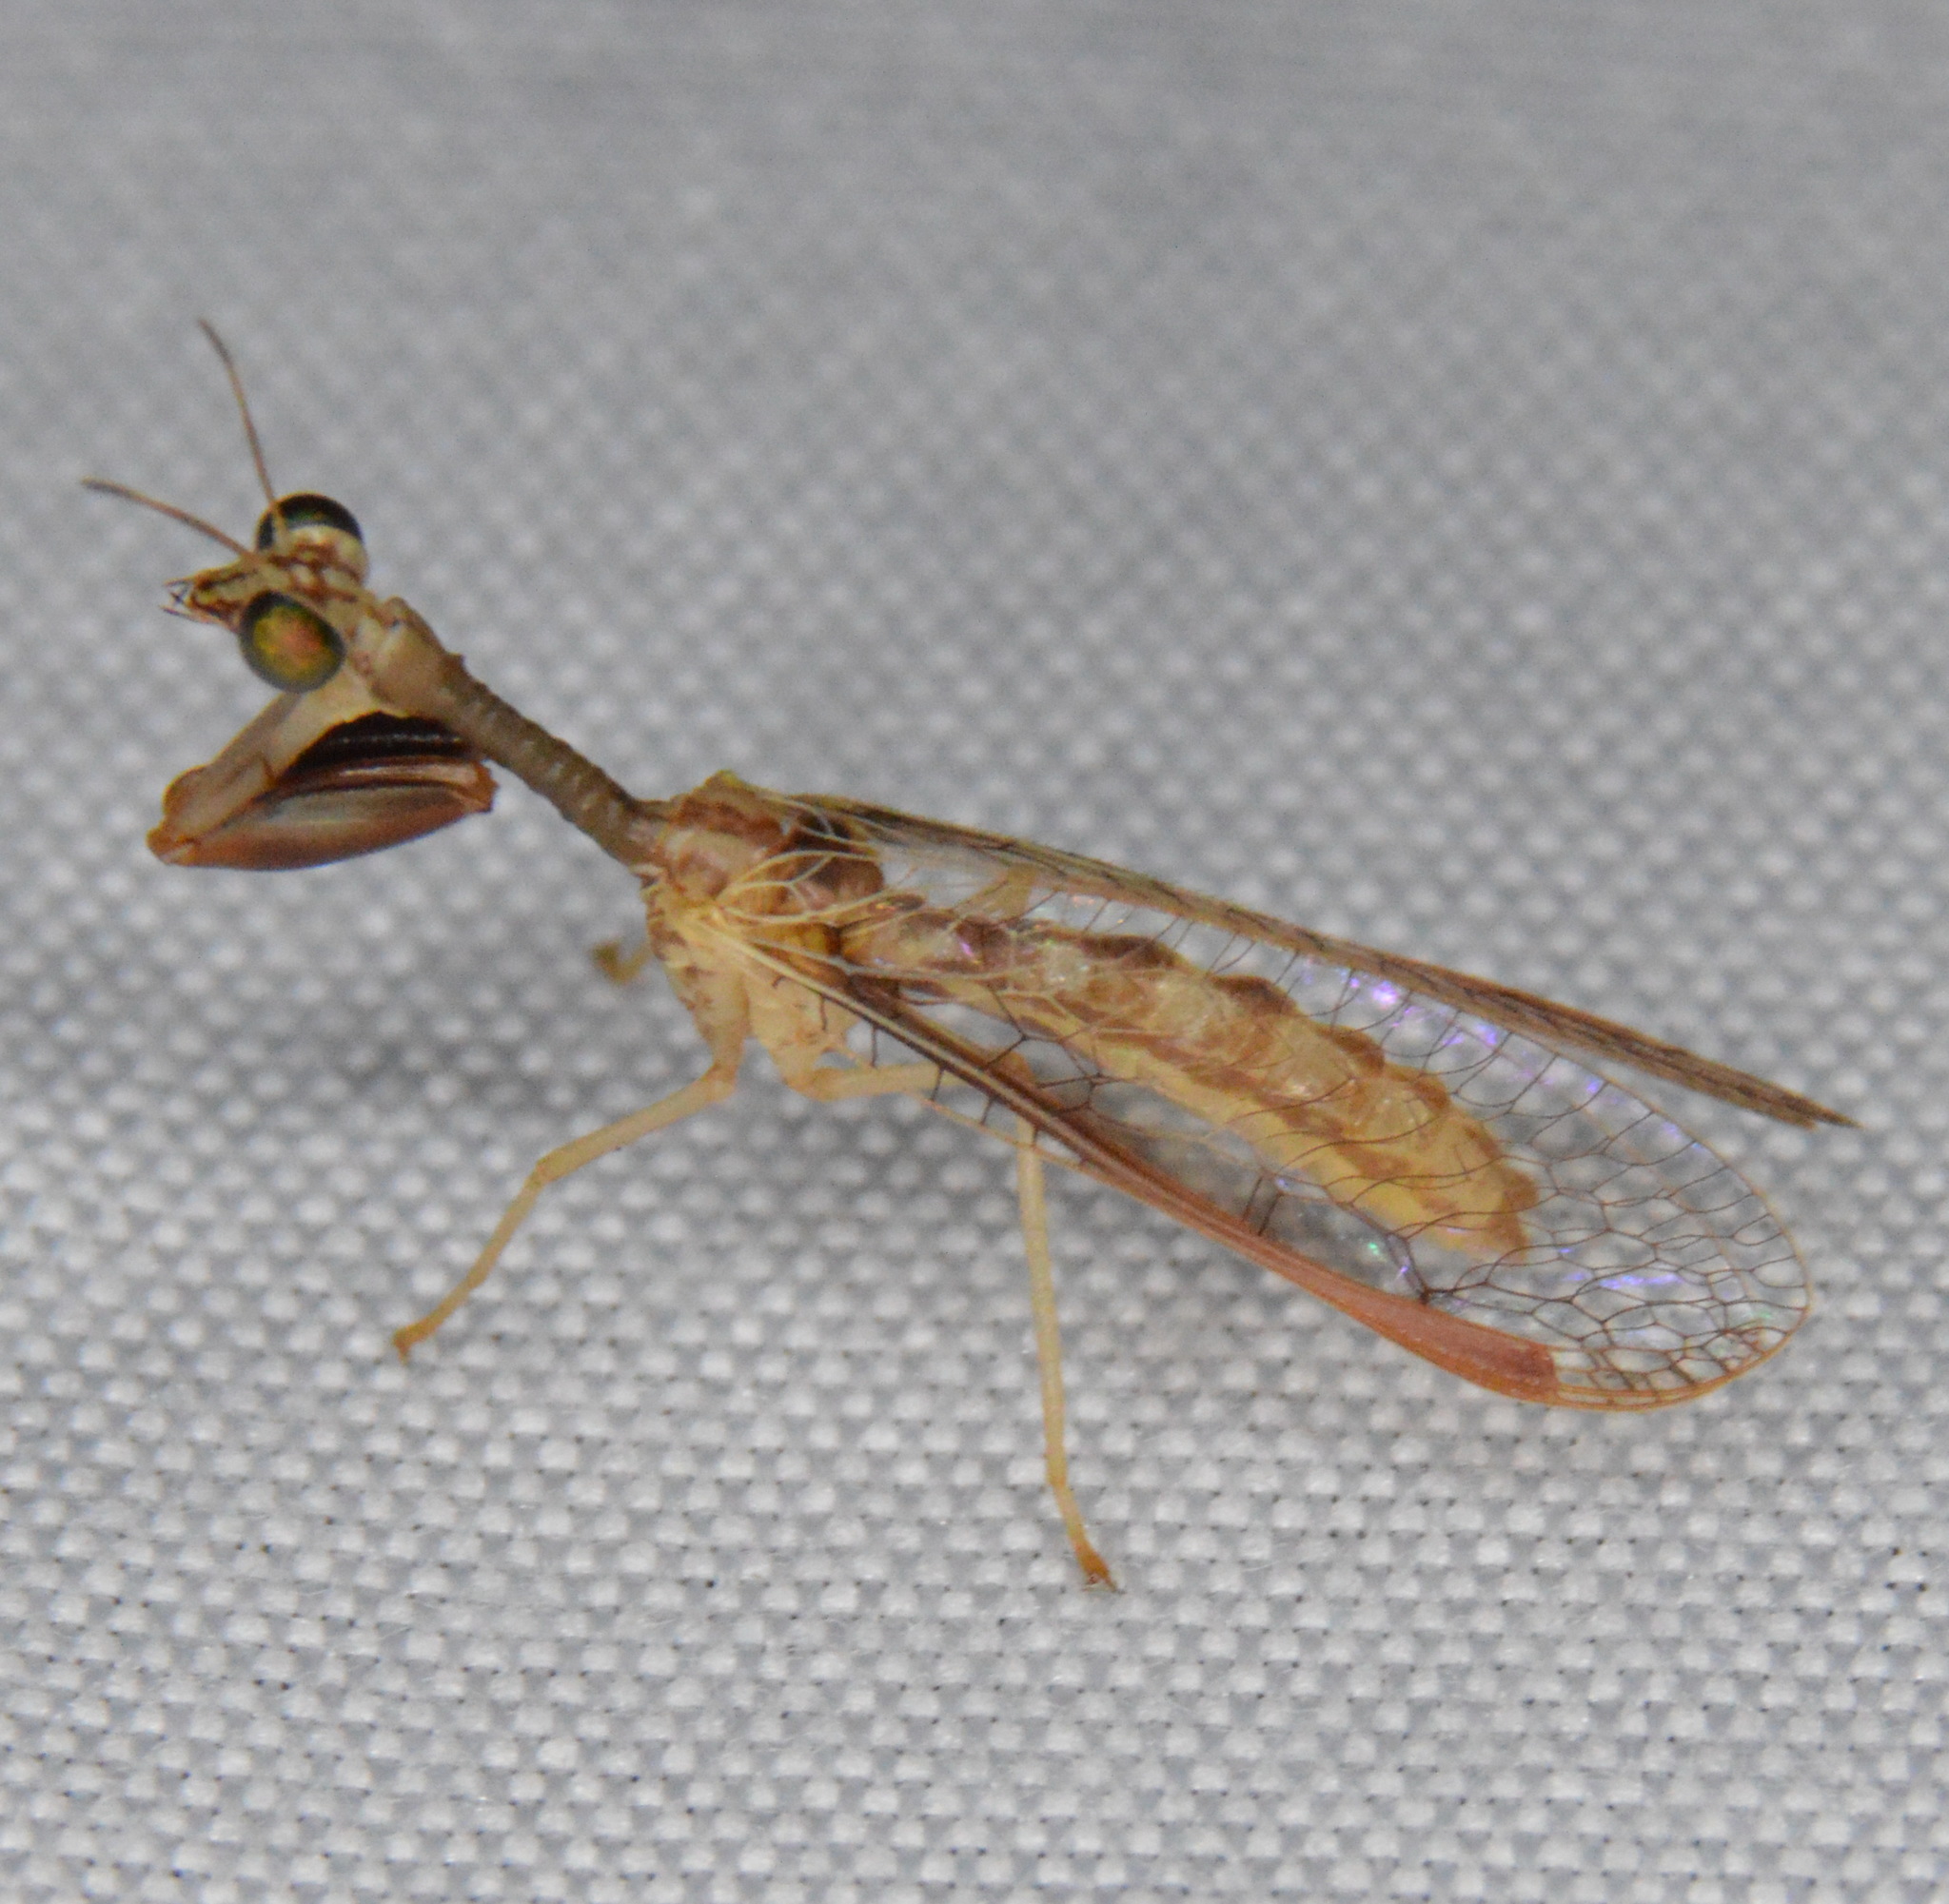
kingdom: Animalia
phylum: Arthropoda
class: Insecta
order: Neuroptera
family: Mantispidae
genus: Dicromantispa
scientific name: Dicromantispa sayi
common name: Say's mantidfly
